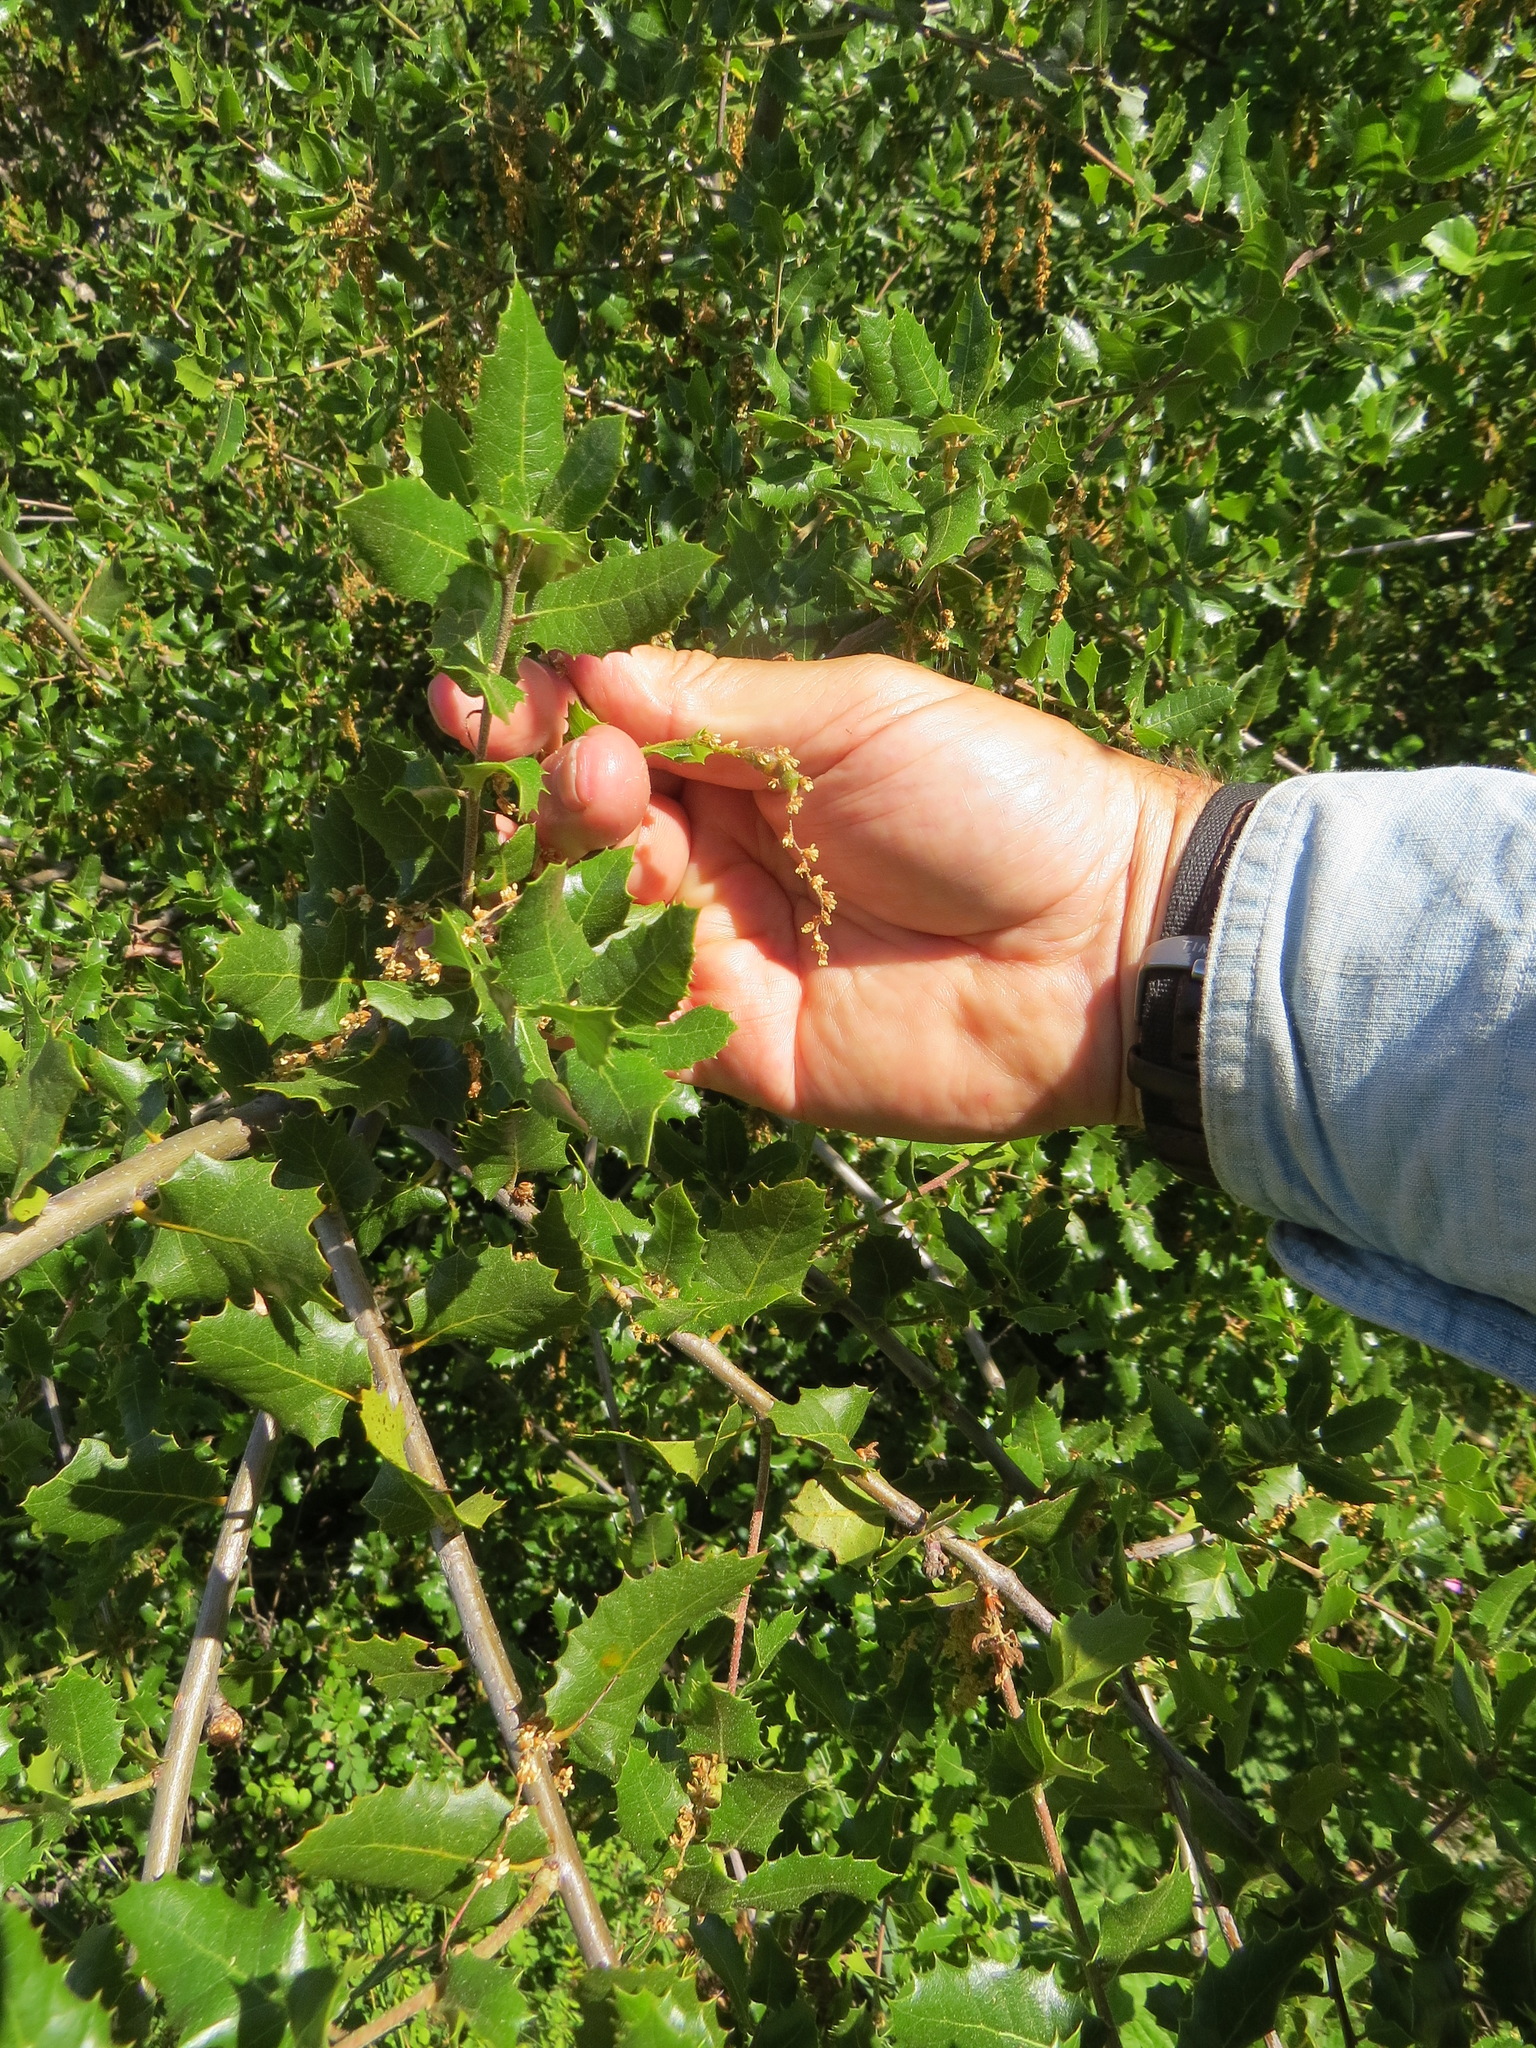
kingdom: Animalia
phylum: Arthropoda
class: Insecta
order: Hymenoptera
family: Cynipidae
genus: Callirhytis
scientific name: Callirhytis
